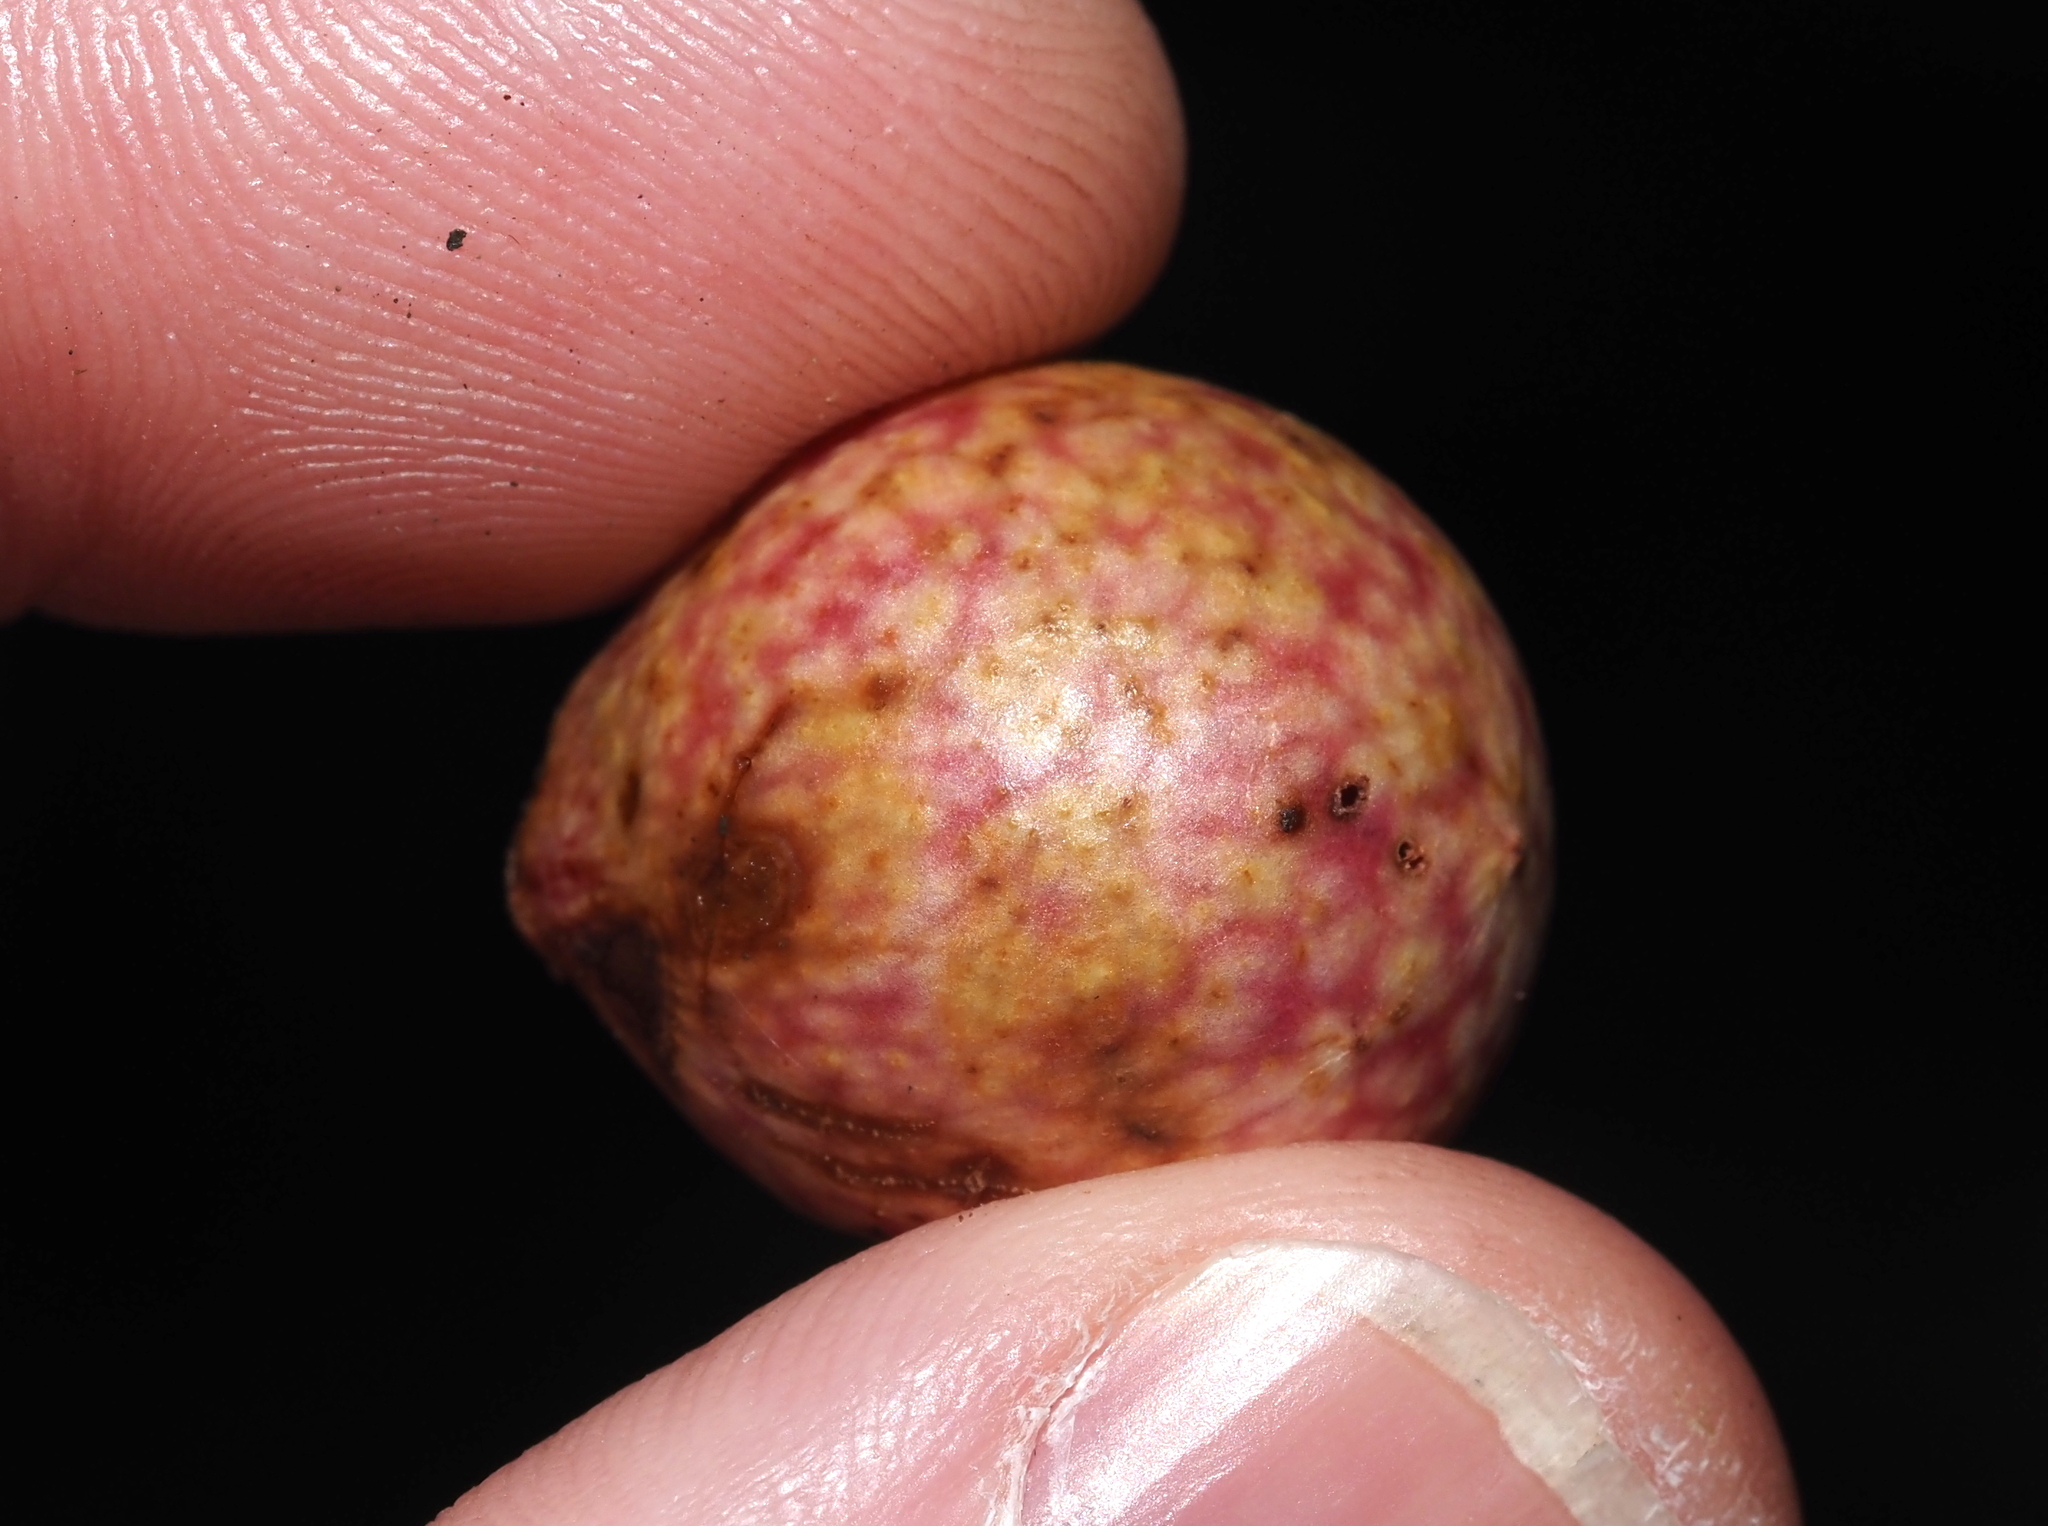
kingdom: Animalia
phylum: Arthropoda
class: Insecta
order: Hymenoptera
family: Cynipidae
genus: Amphibolips
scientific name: Amphibolips
